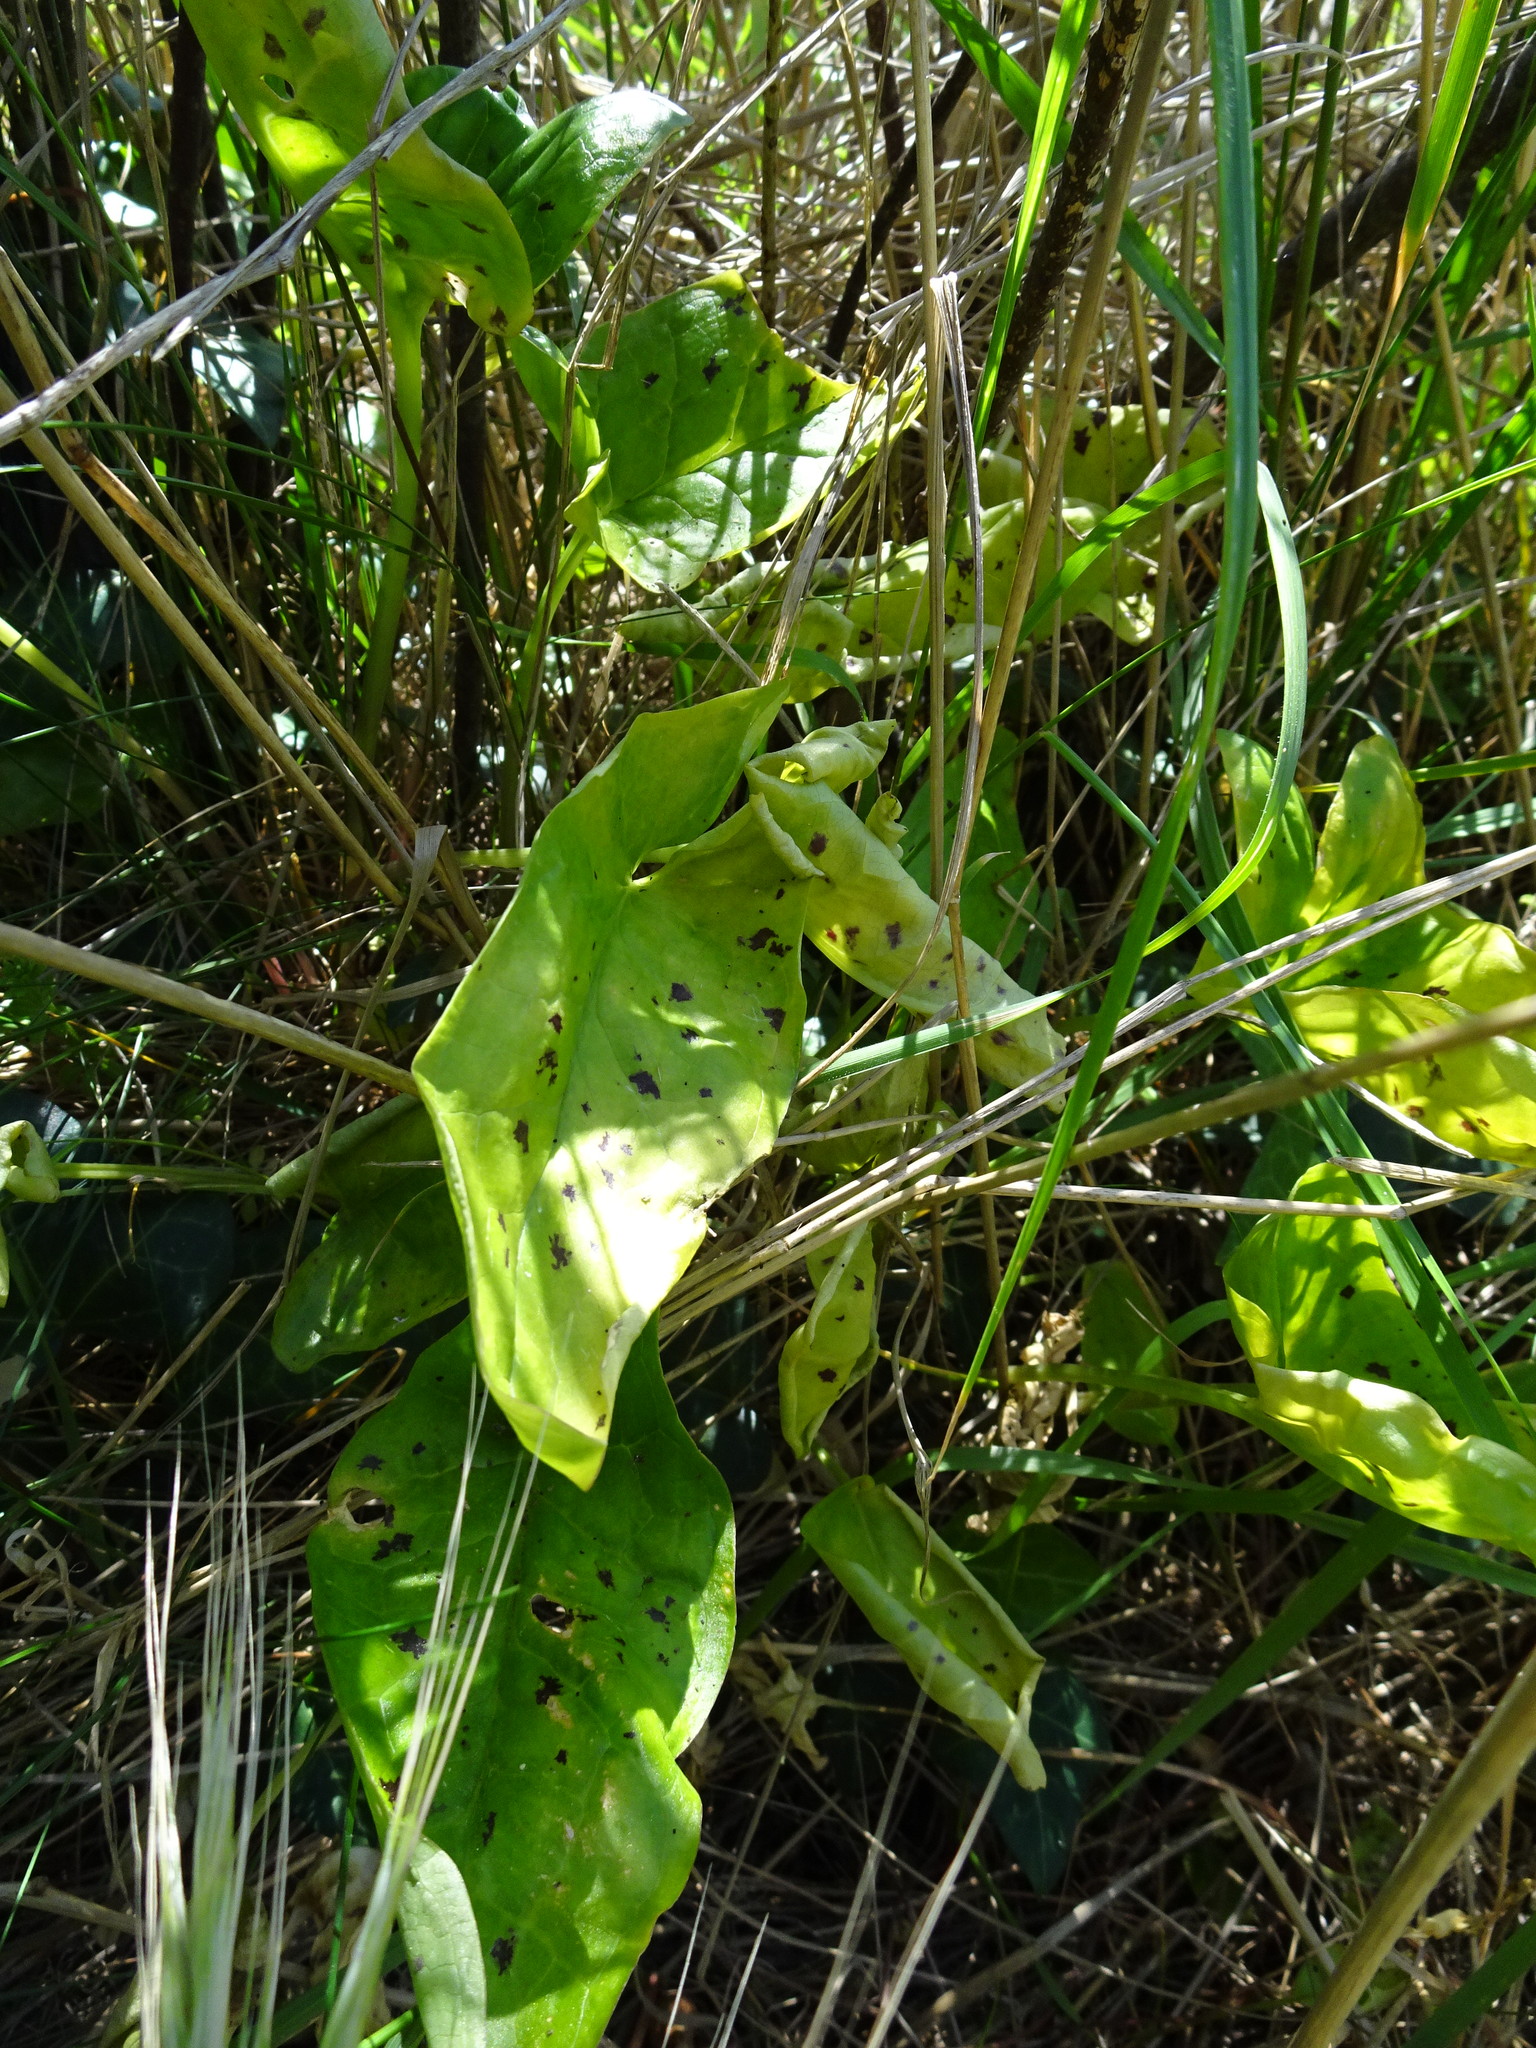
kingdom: Plantae
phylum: Tracheophyta
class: Liliopsida
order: Alismatales
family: Araceae
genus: Arum
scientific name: Arum maculatum
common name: Lords-and-ladies
